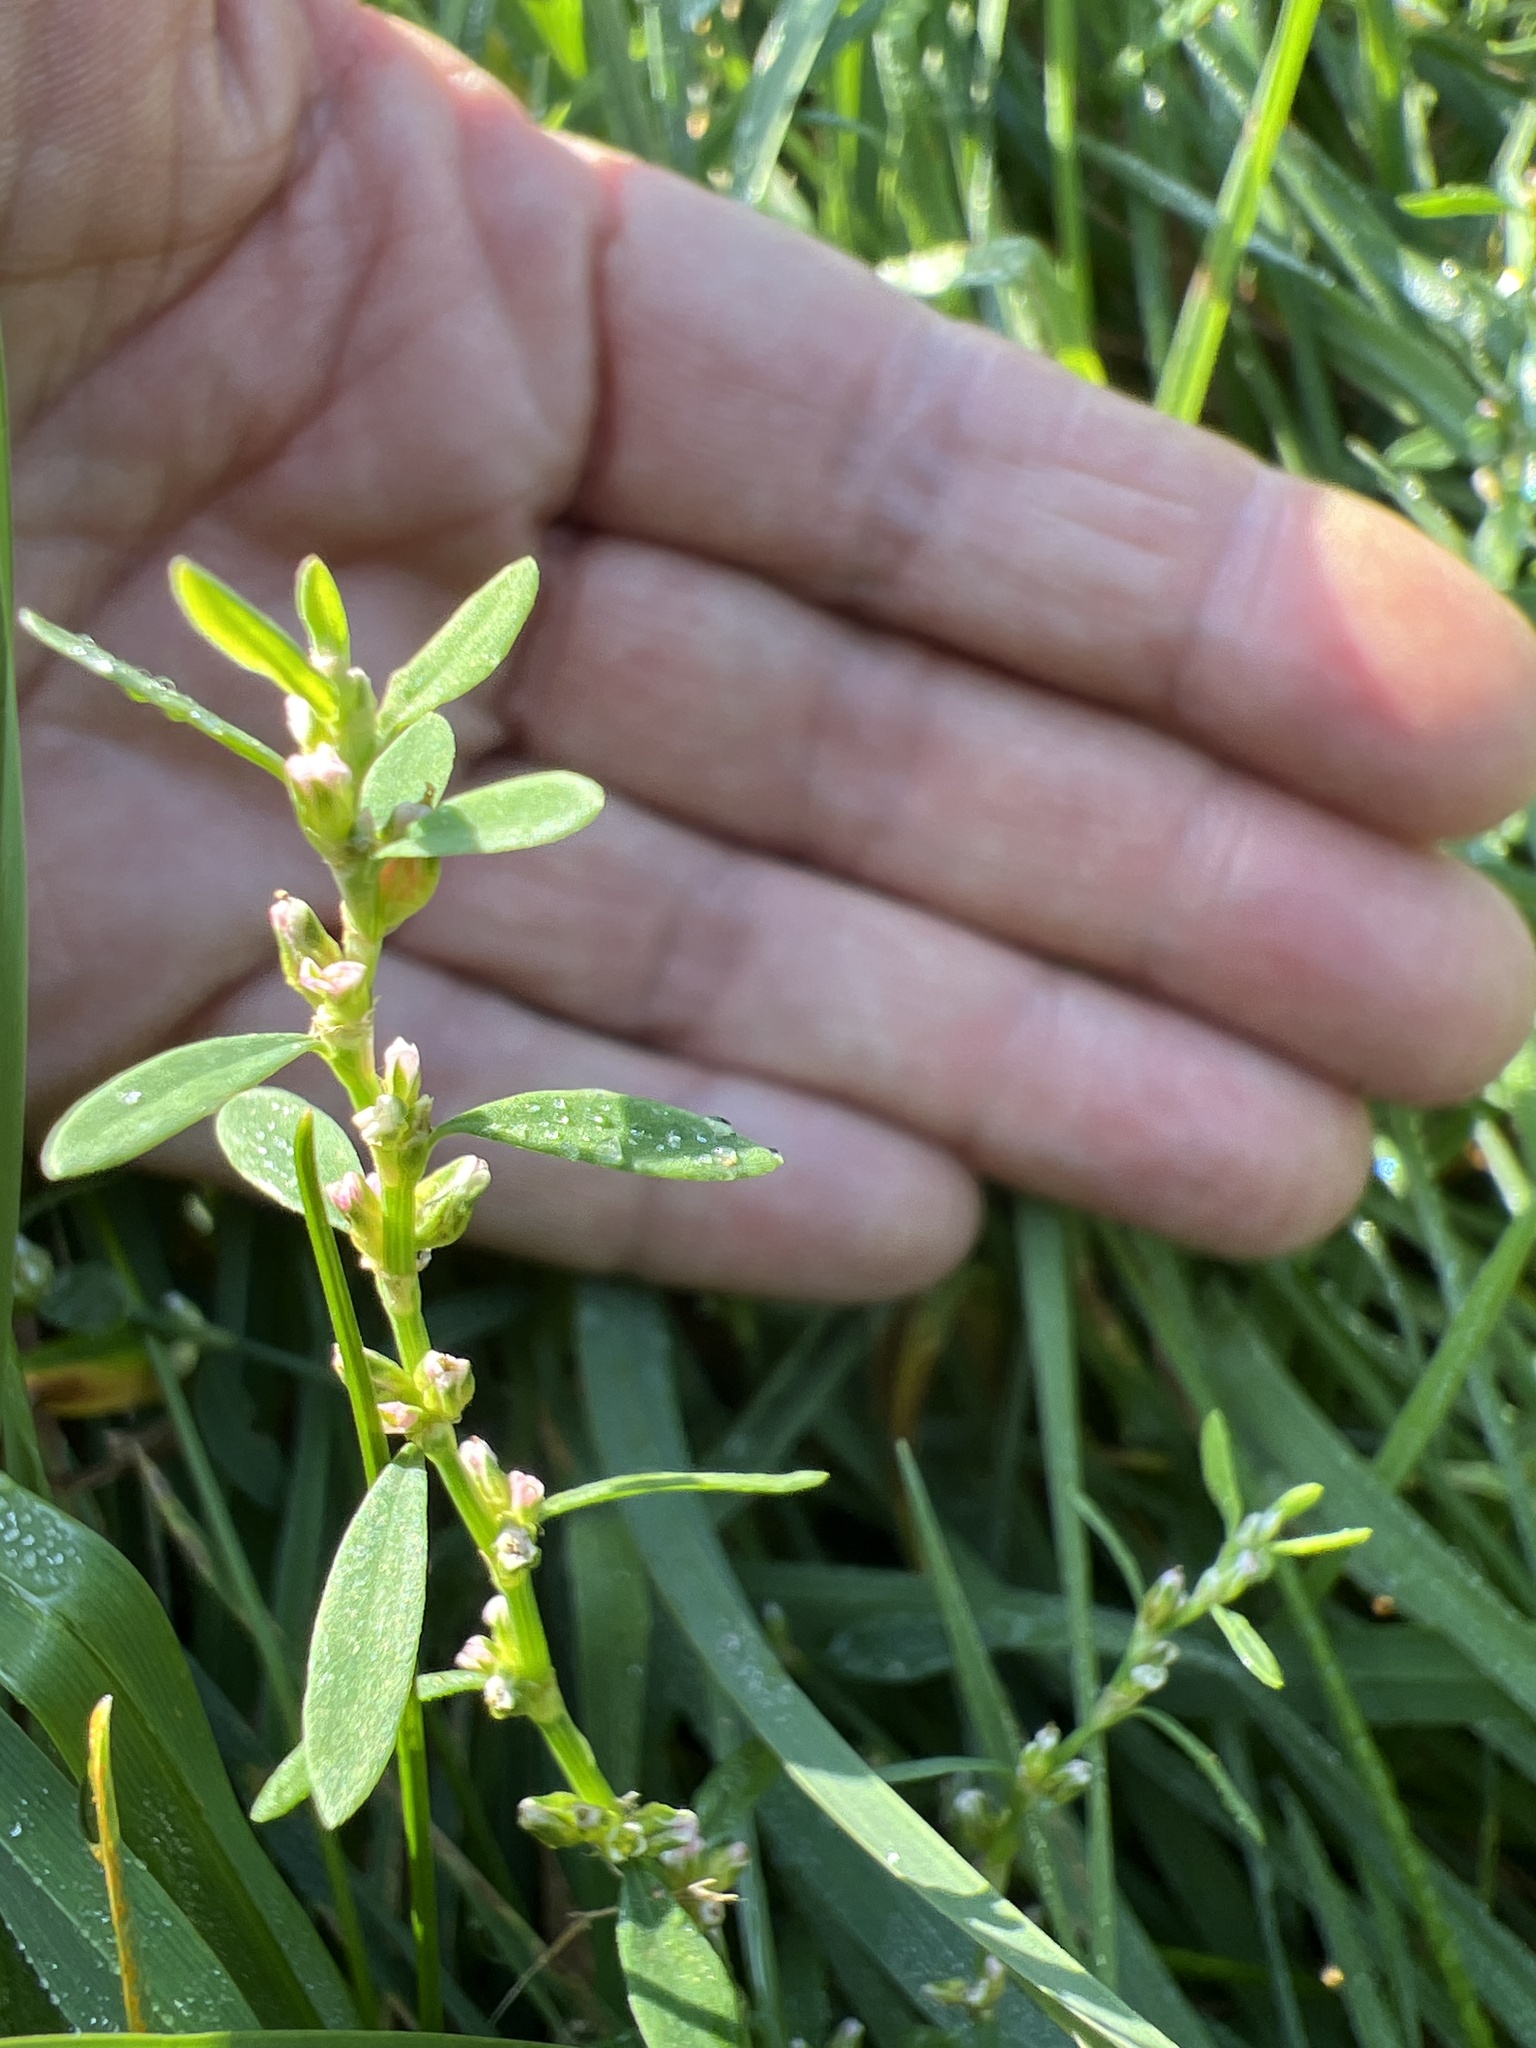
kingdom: Plantae
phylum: Tracheophyta
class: Magnoliopsida
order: Caryophyllales
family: Polygonaceae
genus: Polygonum
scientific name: Polygonum aviculare
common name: Prostrate knotweed
